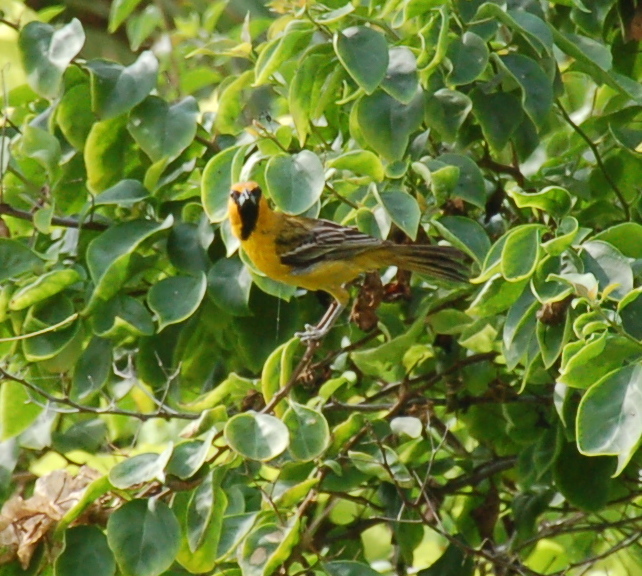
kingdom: Animalia
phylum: Chordata
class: Aves
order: Passeriformes
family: Icteridae
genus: Icterus
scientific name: Icterus pustulatus
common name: Streak-backed oriole
